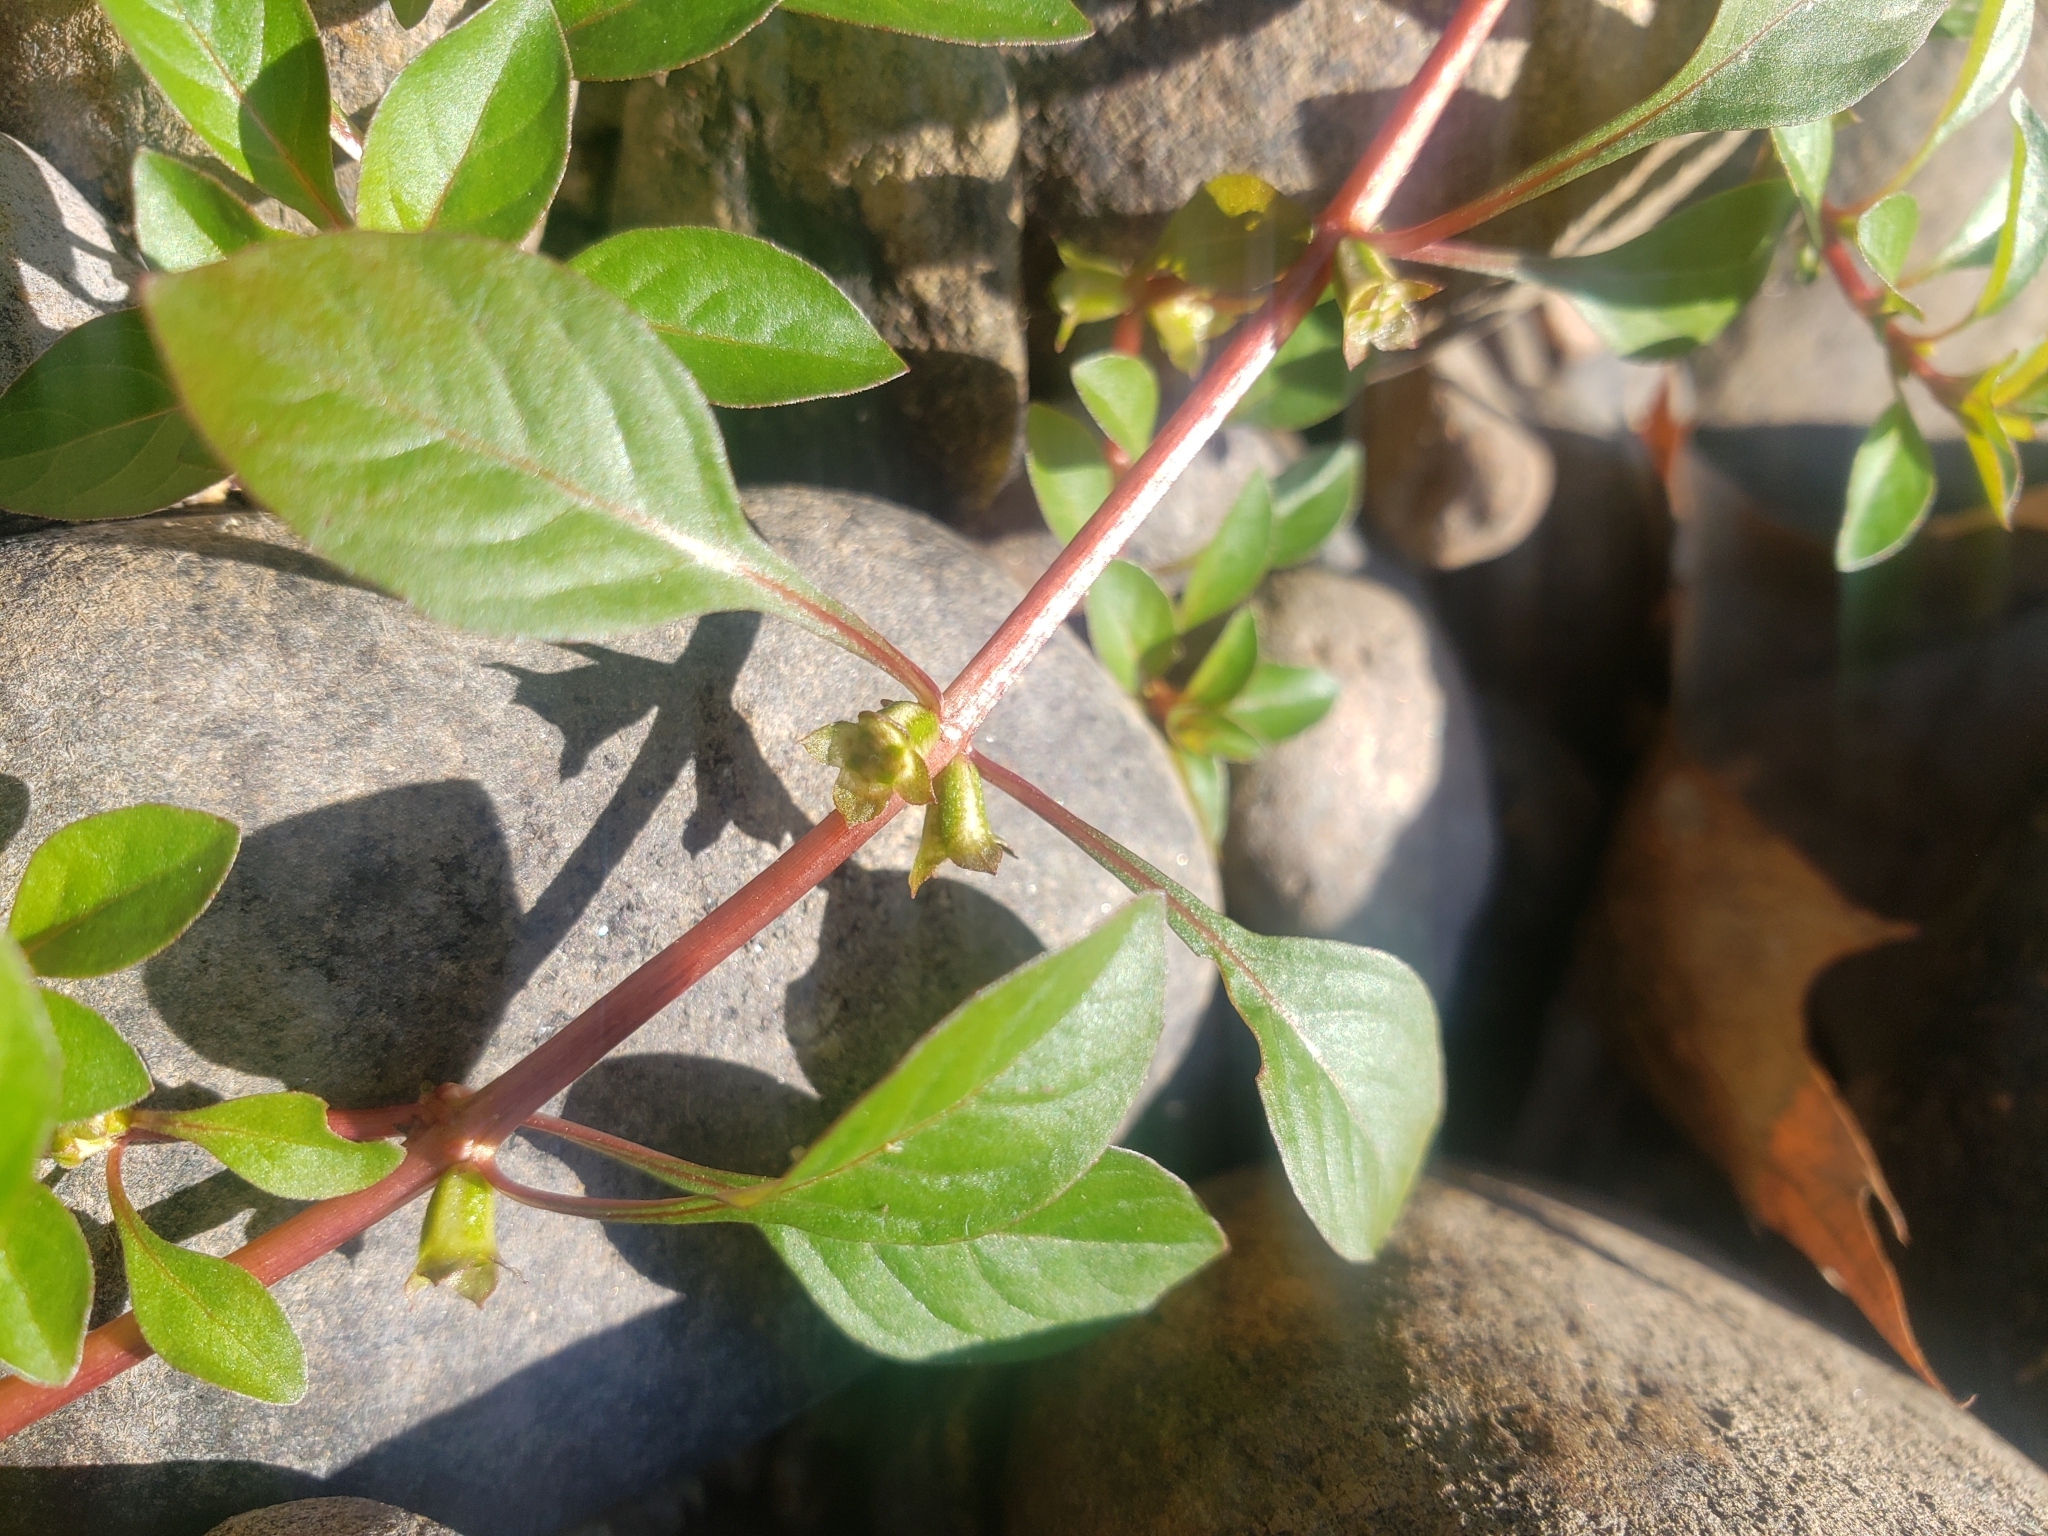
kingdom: Plantae
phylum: Tracheophyta
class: Magnoliopsida
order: Myrtales
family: Onagraceae
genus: Ludwigia
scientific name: Ludwigia palustris
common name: Hampshire-purslane
